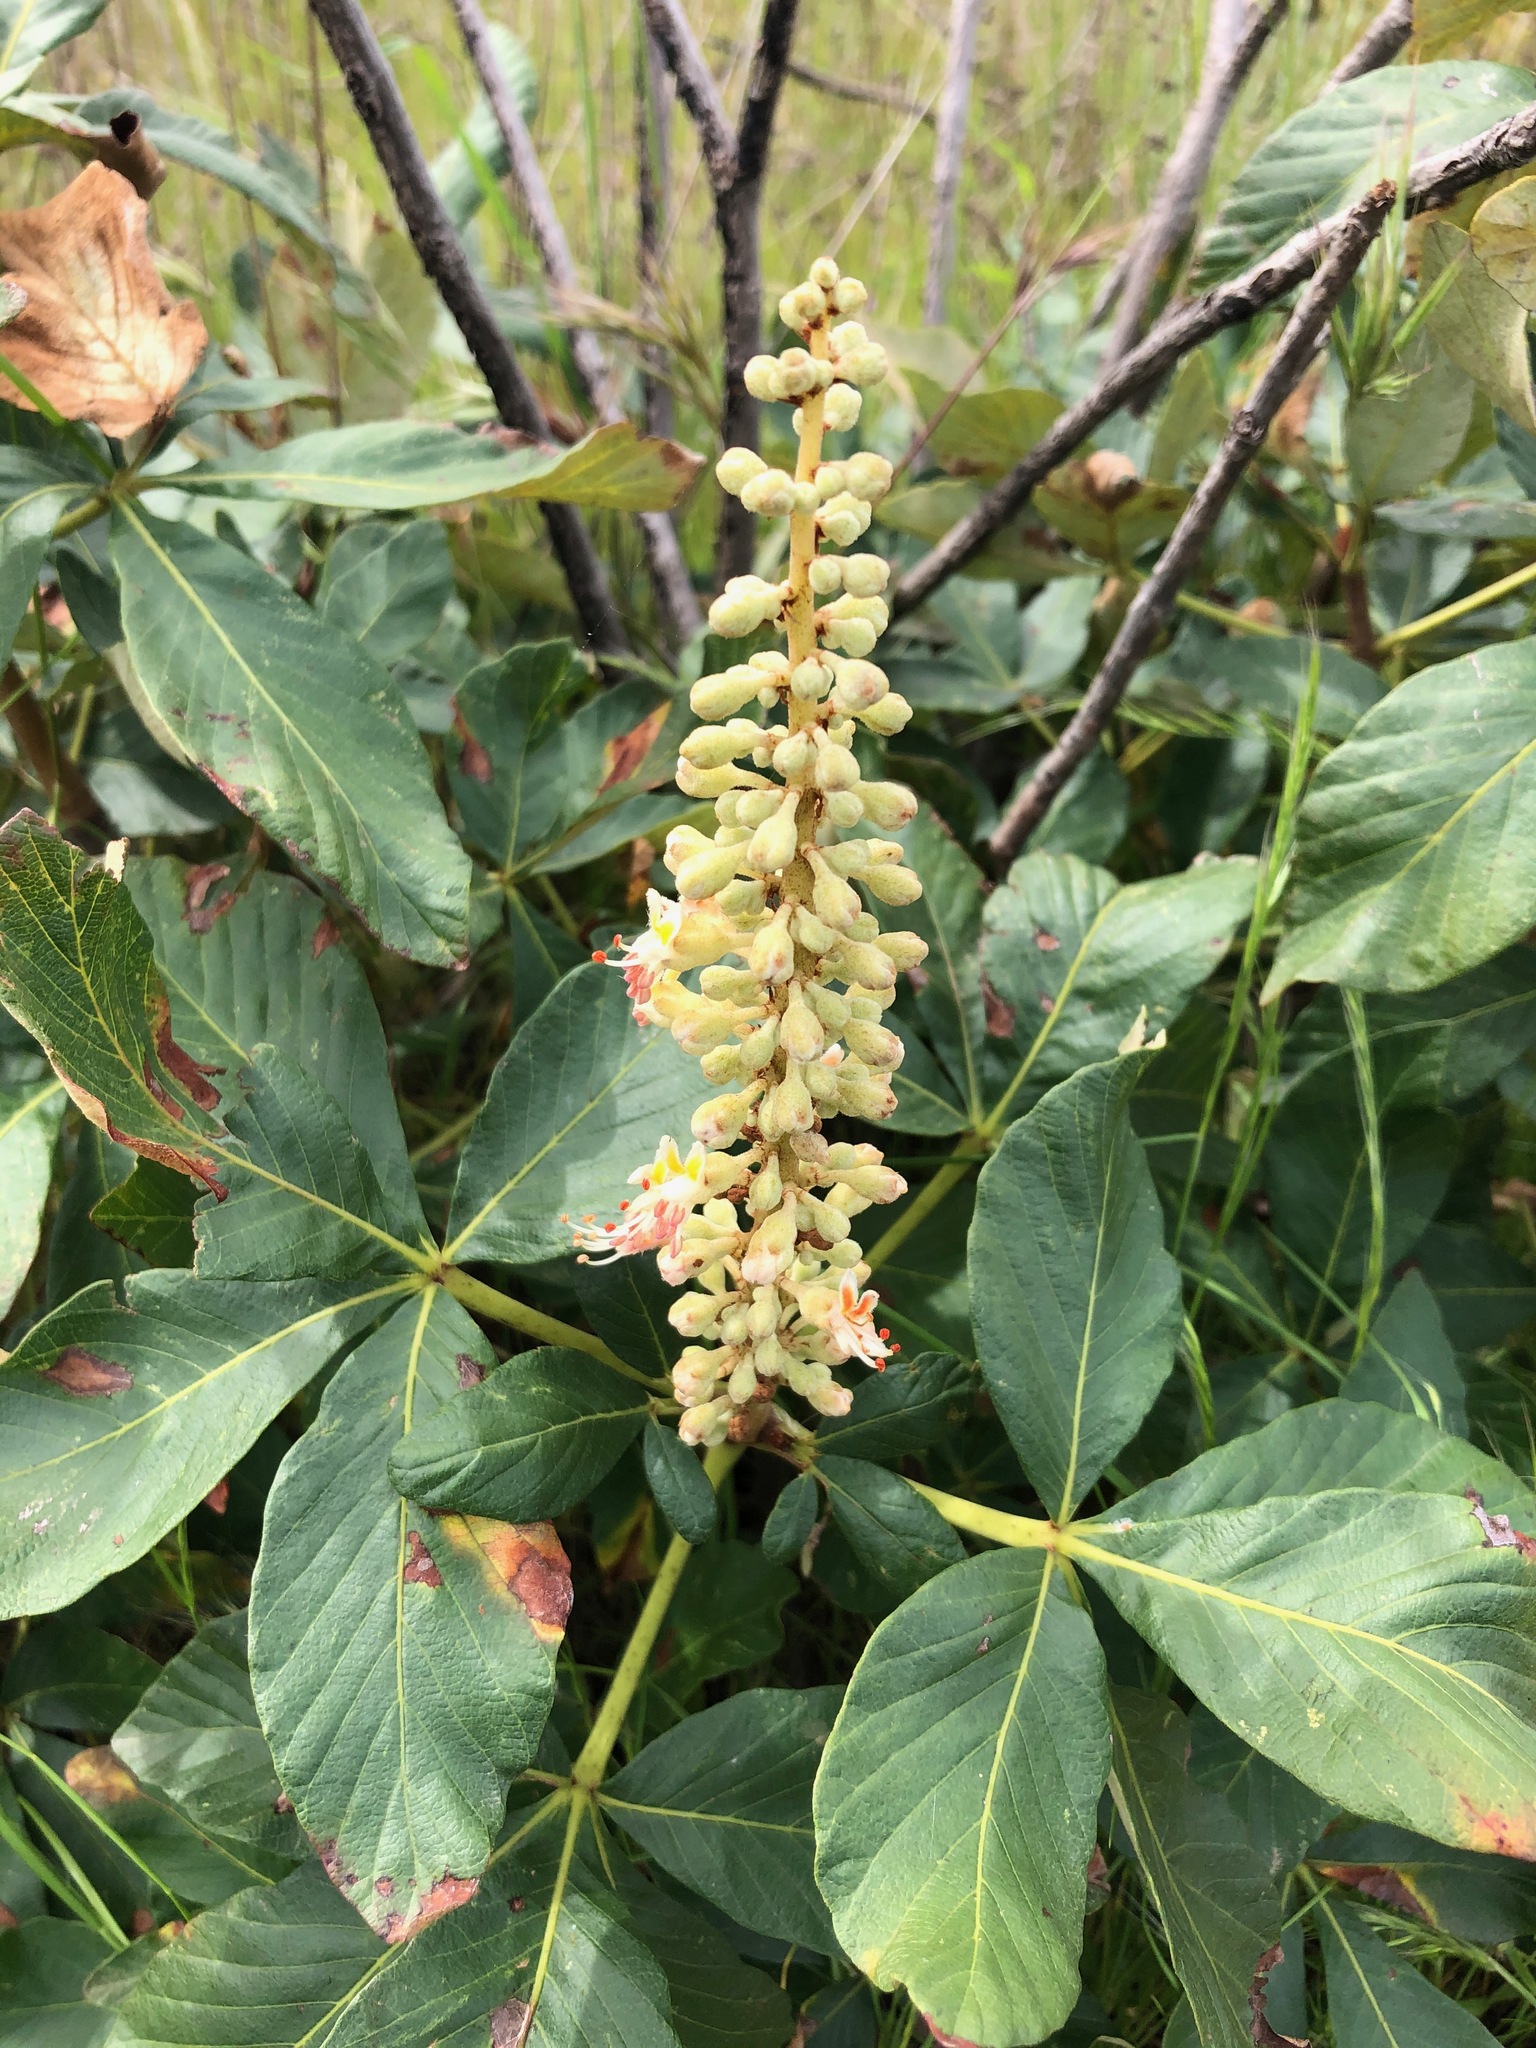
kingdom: Plantae
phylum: Tracheophyta
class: Magnoliopsida
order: Sapindales
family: Sapindaceae
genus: Aesculus
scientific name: Aesculus parryi
